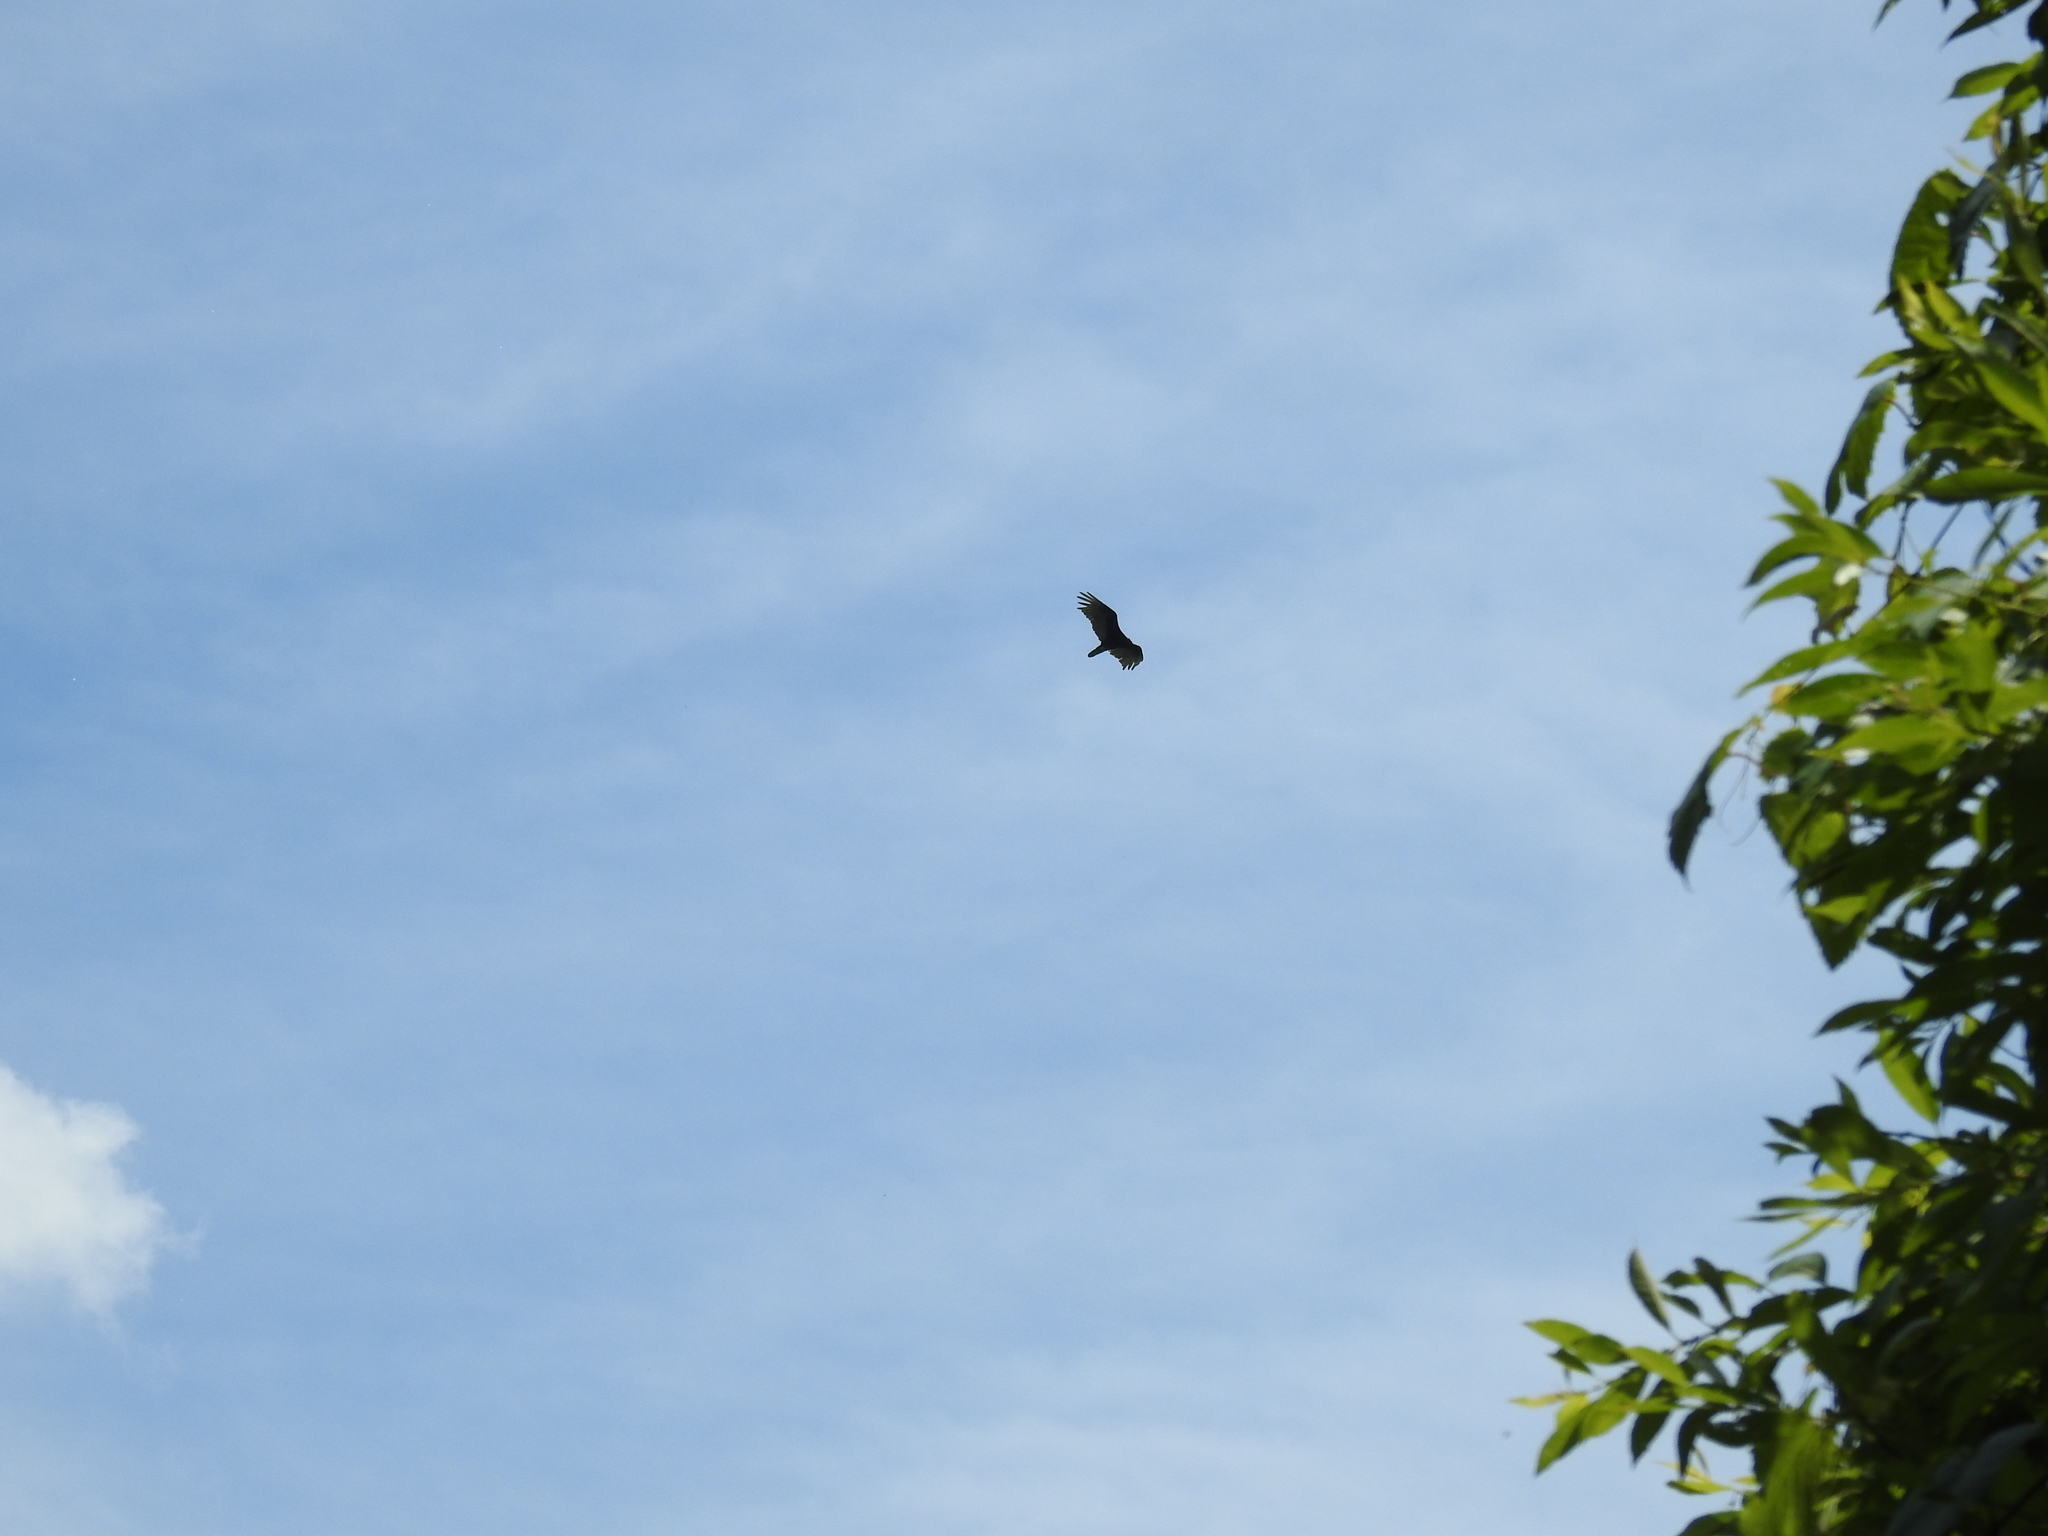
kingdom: Animalia
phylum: Chordata
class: Aves
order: Accipitriformes
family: Cathartidae
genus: Cathartes
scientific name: Cathartes aura
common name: Turkey vulture
